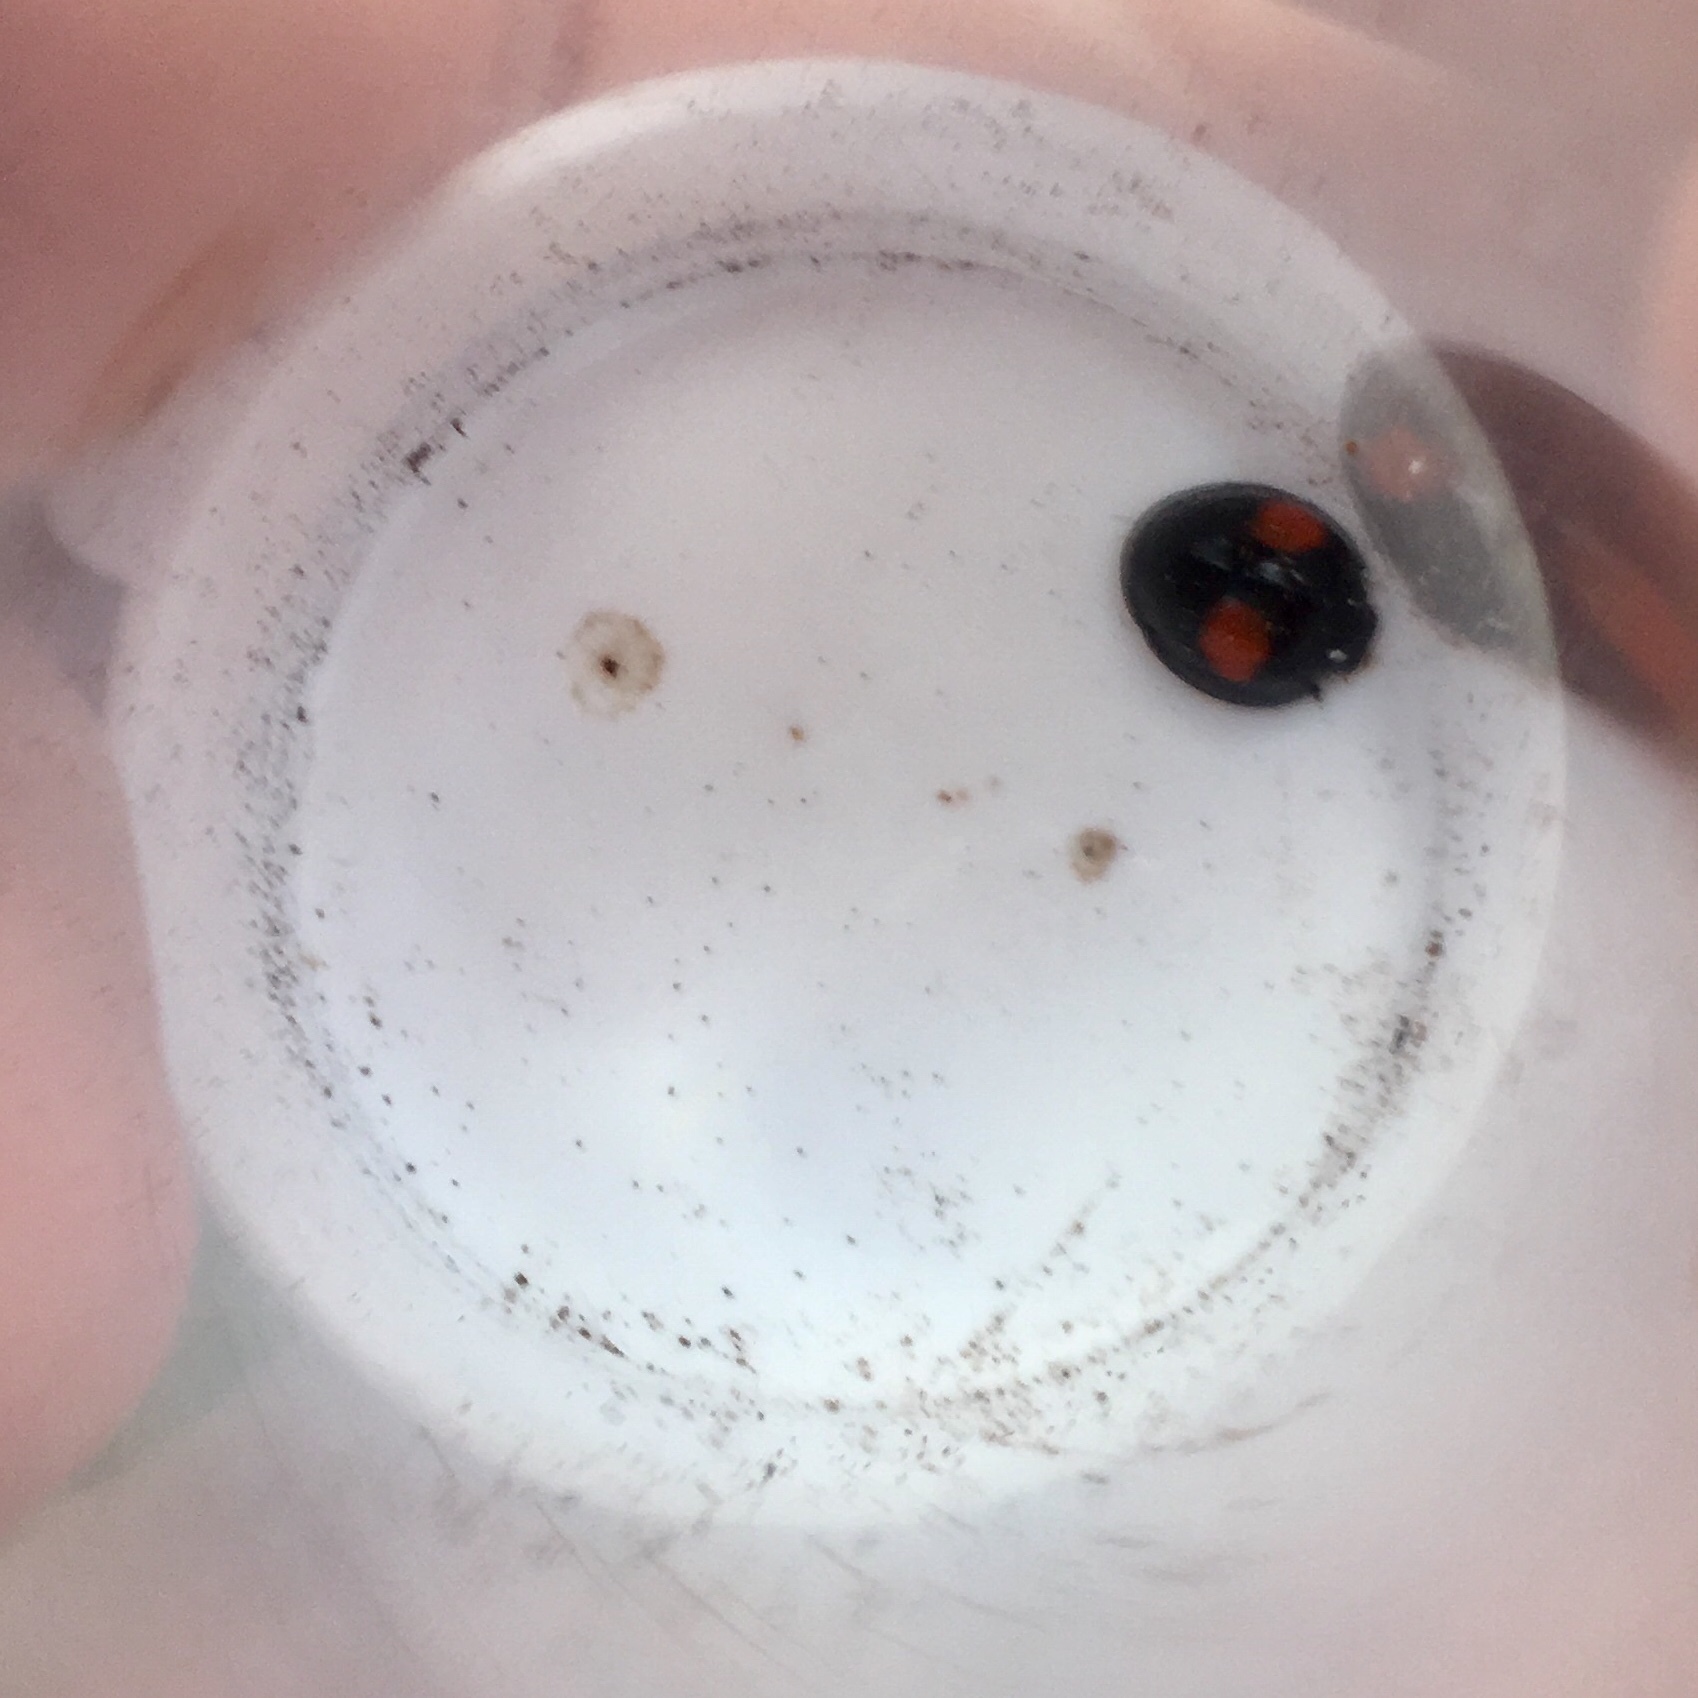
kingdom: Animalia
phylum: Arthropoda
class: Insecta
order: Coleoptera
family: Coccinellidae
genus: Chilocorus
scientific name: Chilocorus cacti
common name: Cactus lady beetle
